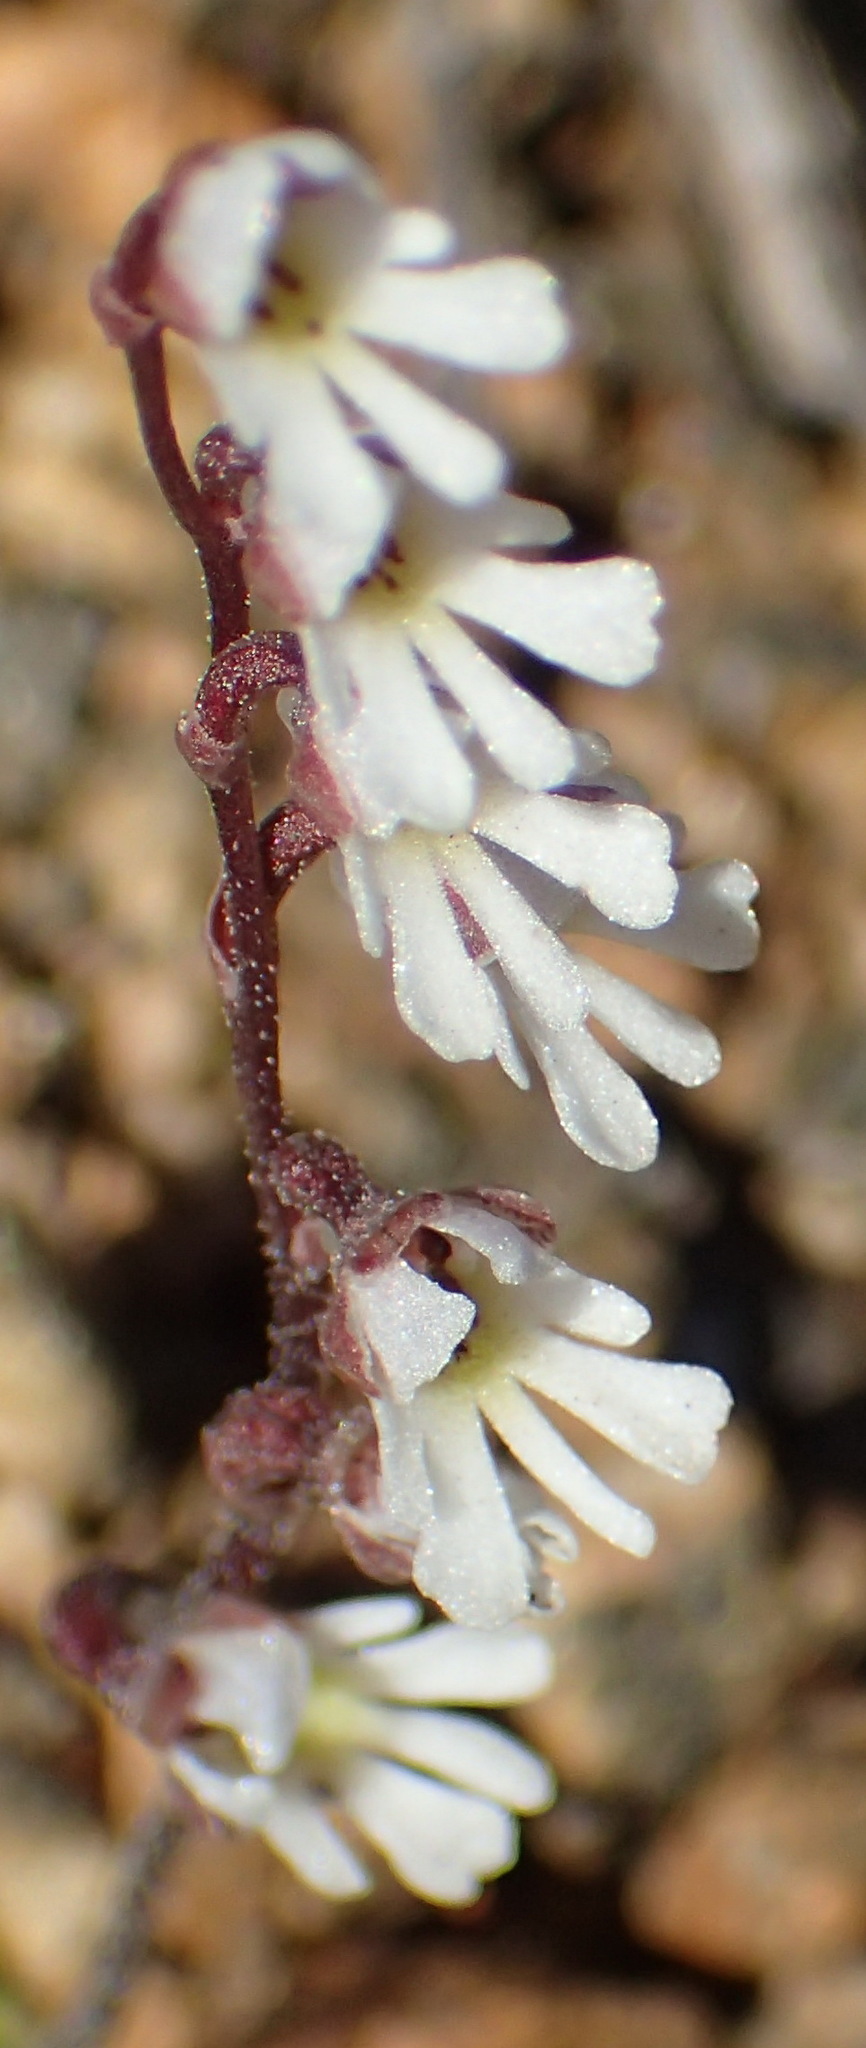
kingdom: Plantae
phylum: Tracheophyta
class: Liliopsida
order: Asparagales
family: Orchidaceae
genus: Holothrix
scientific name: Holothrix aspera
